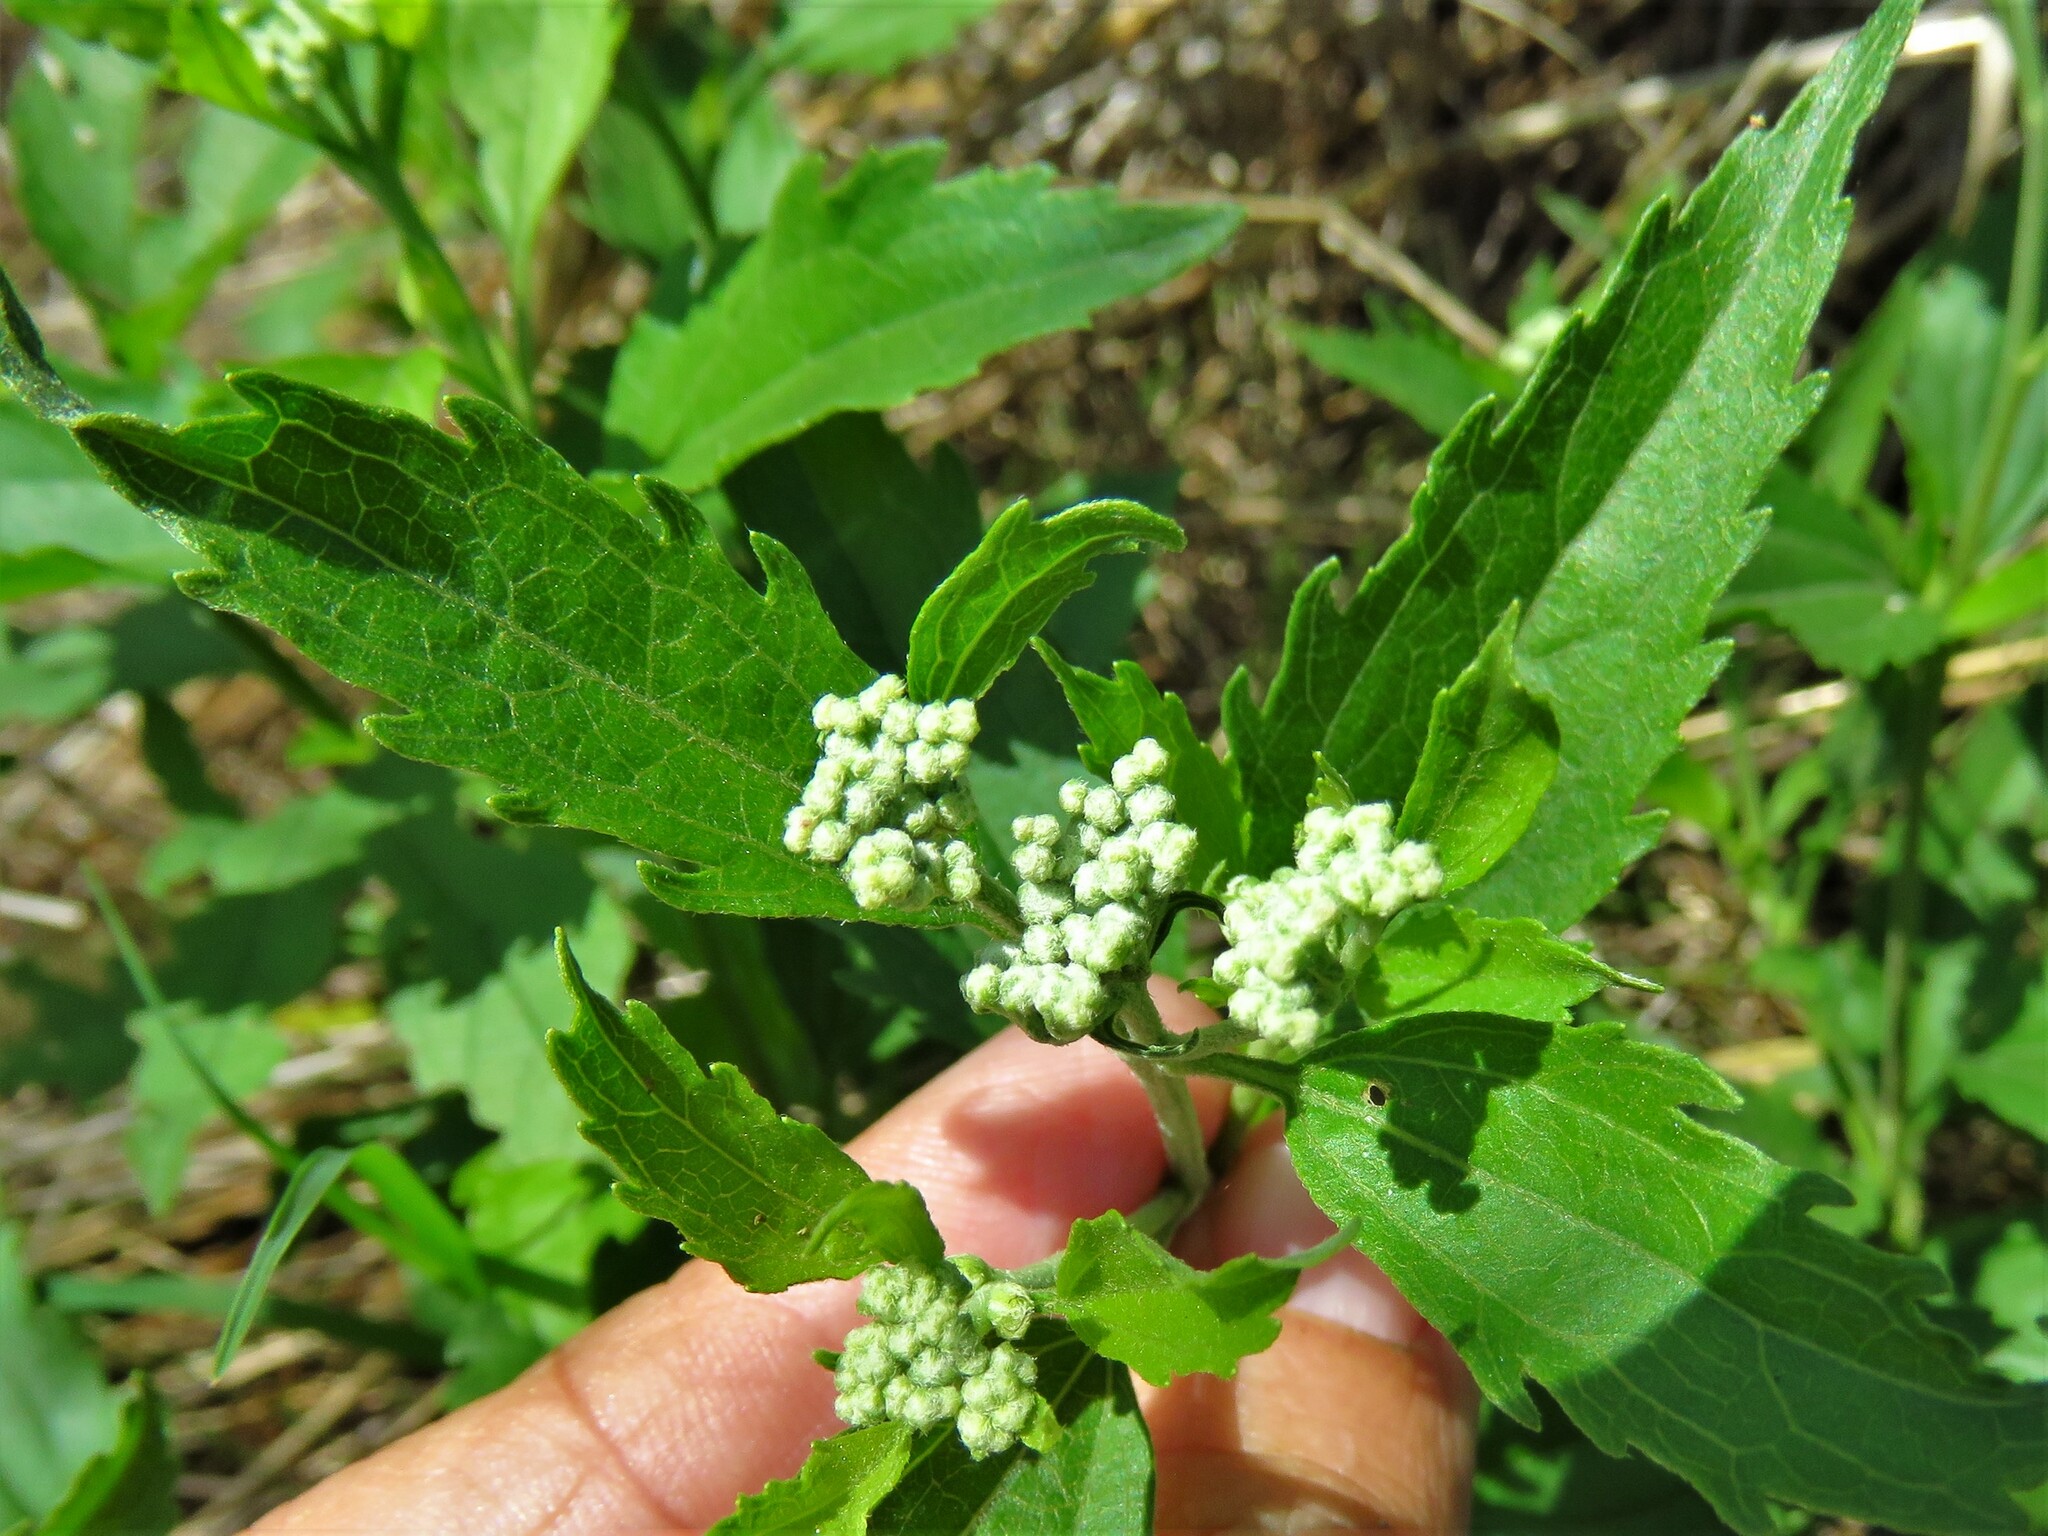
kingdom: Plantae
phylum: Tracheophyta
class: Magnoliopsida
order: Asterales
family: Asteraceae
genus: Eupatorium
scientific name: Eupatorium serotinum
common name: Late boneset
